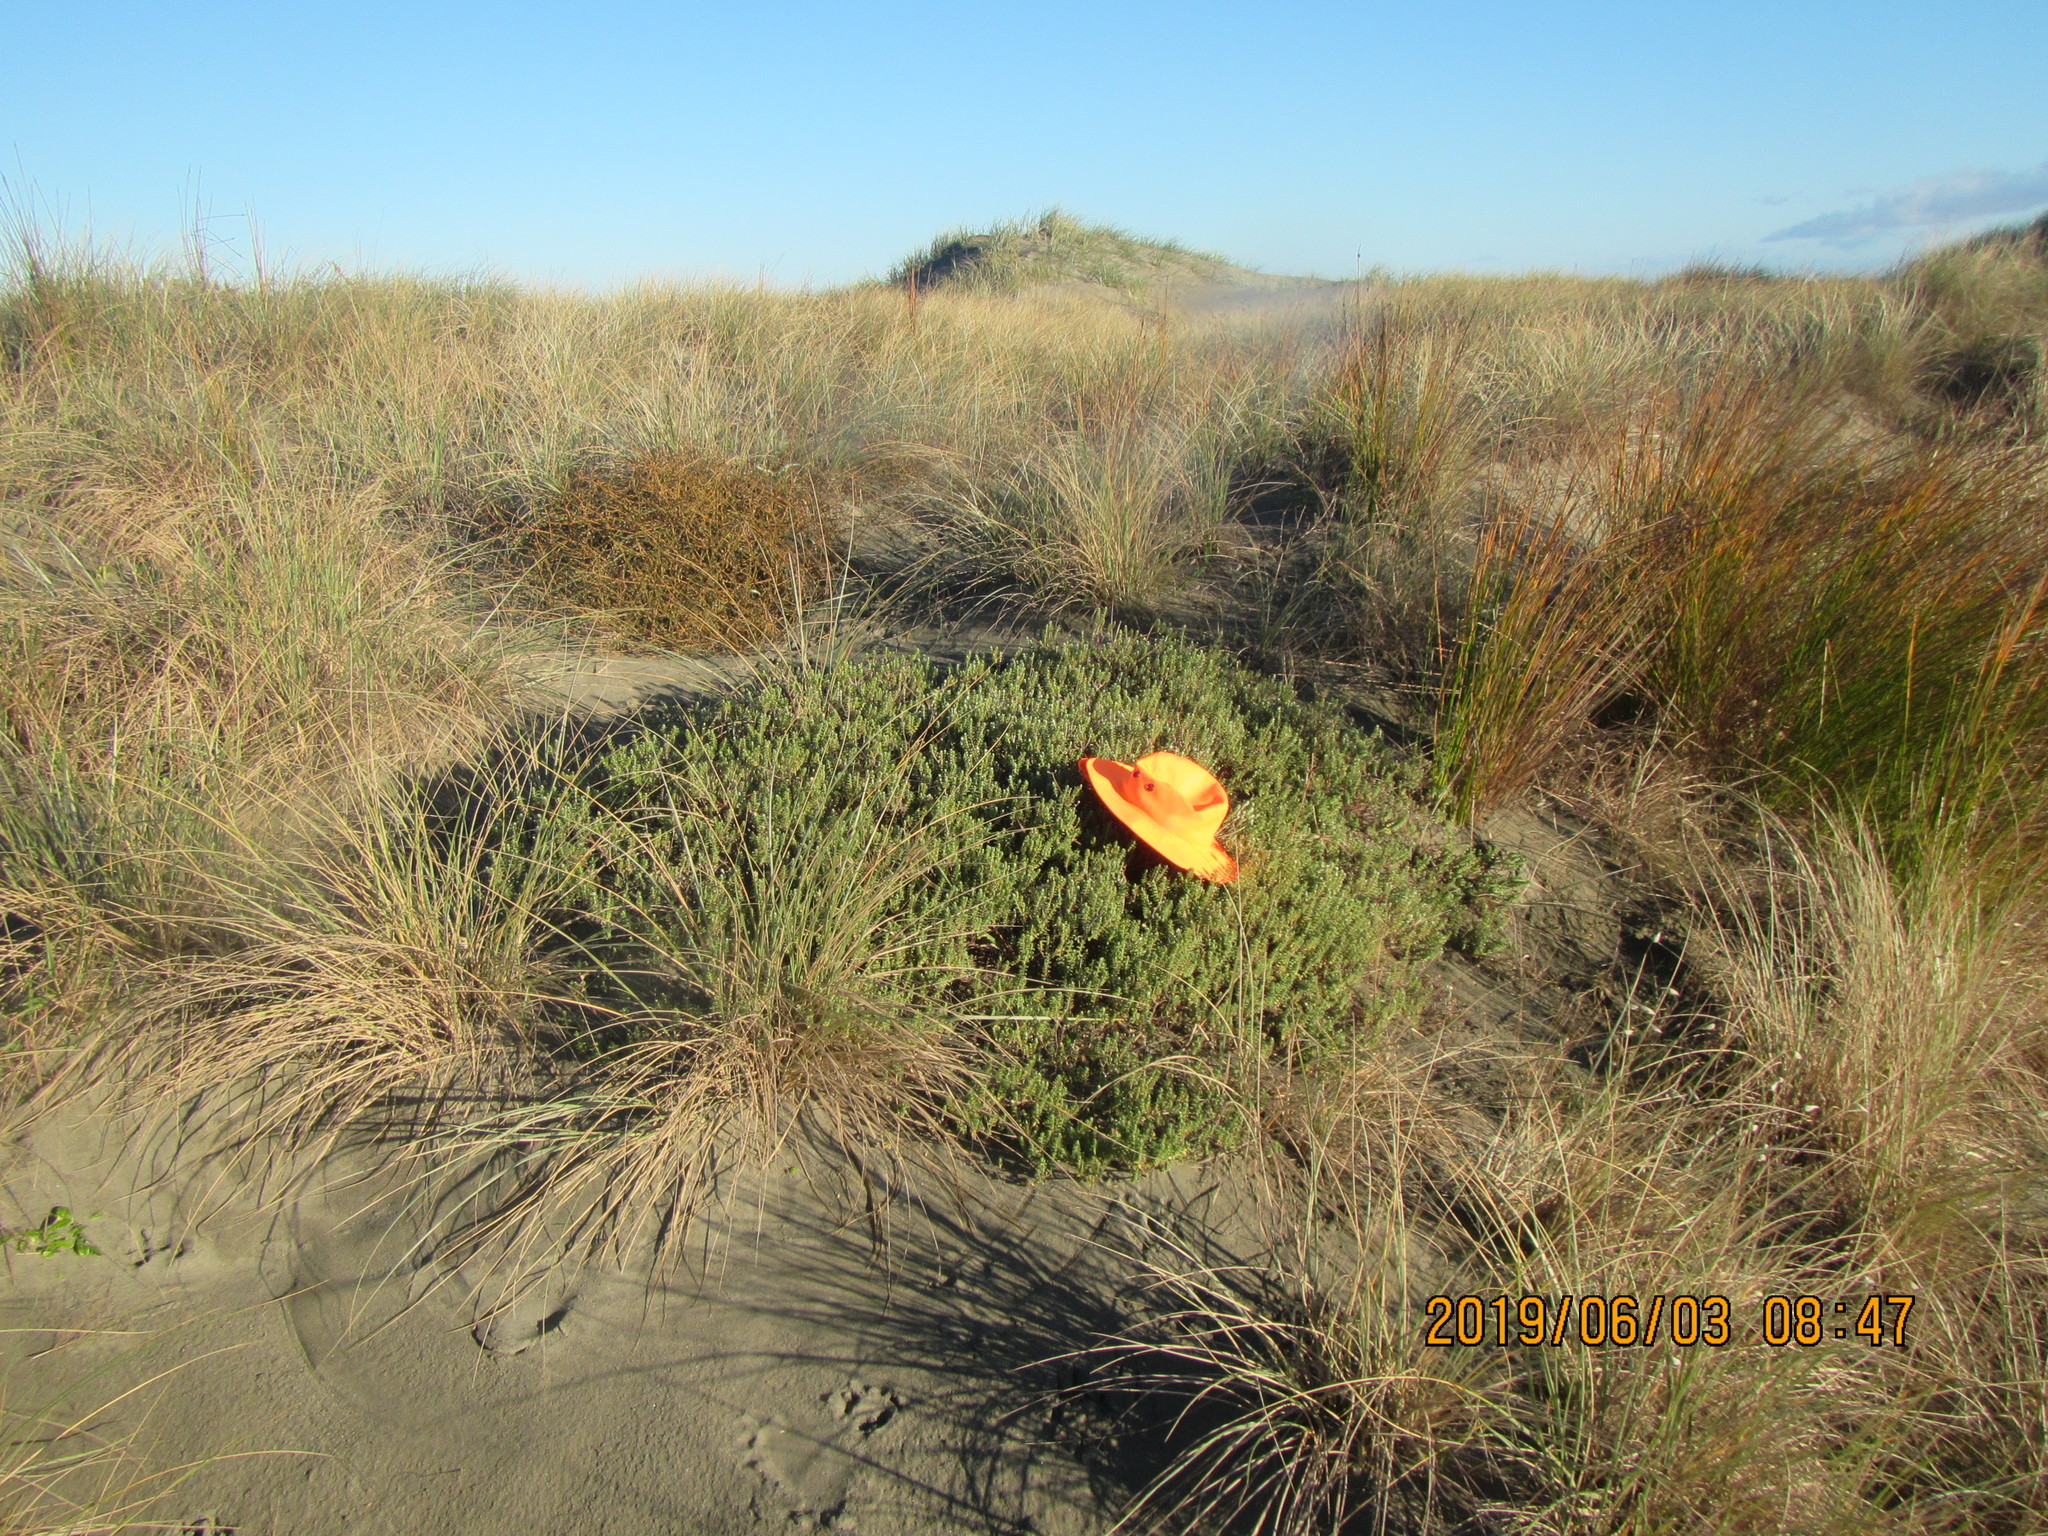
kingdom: Animalia
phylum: Arthropoda
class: Arachnida
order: Araneae
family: Theridiidae
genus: Latrodectus
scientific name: Latrodectus katipo
